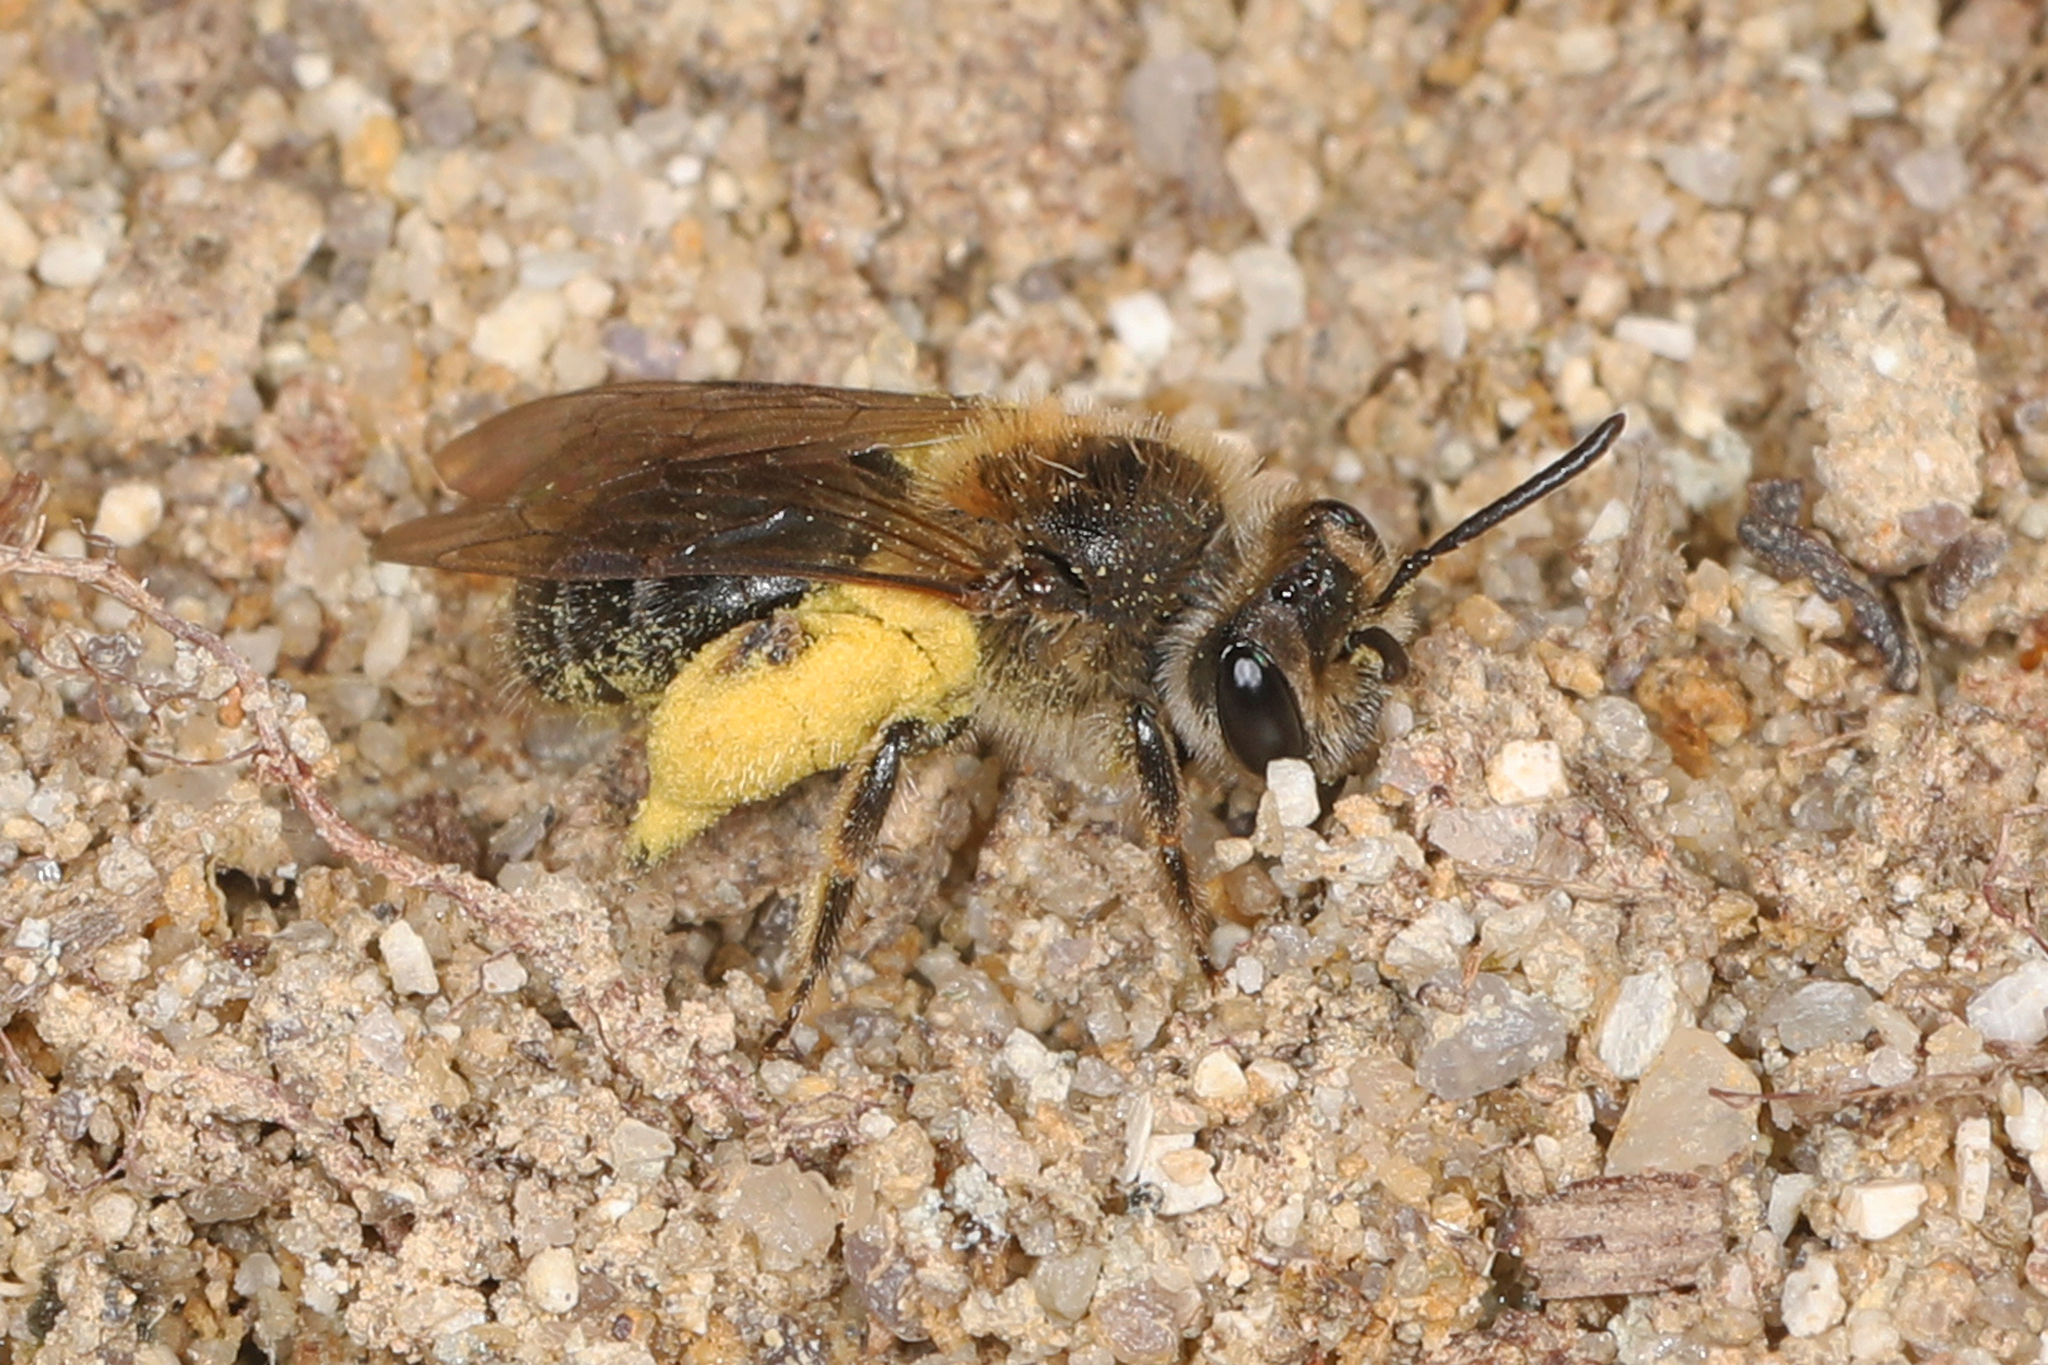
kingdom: Animalia
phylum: Arthropoda
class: Insecta
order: Hymenoptera
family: Andrenidae
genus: Andrena
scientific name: Andrena fenningeri
